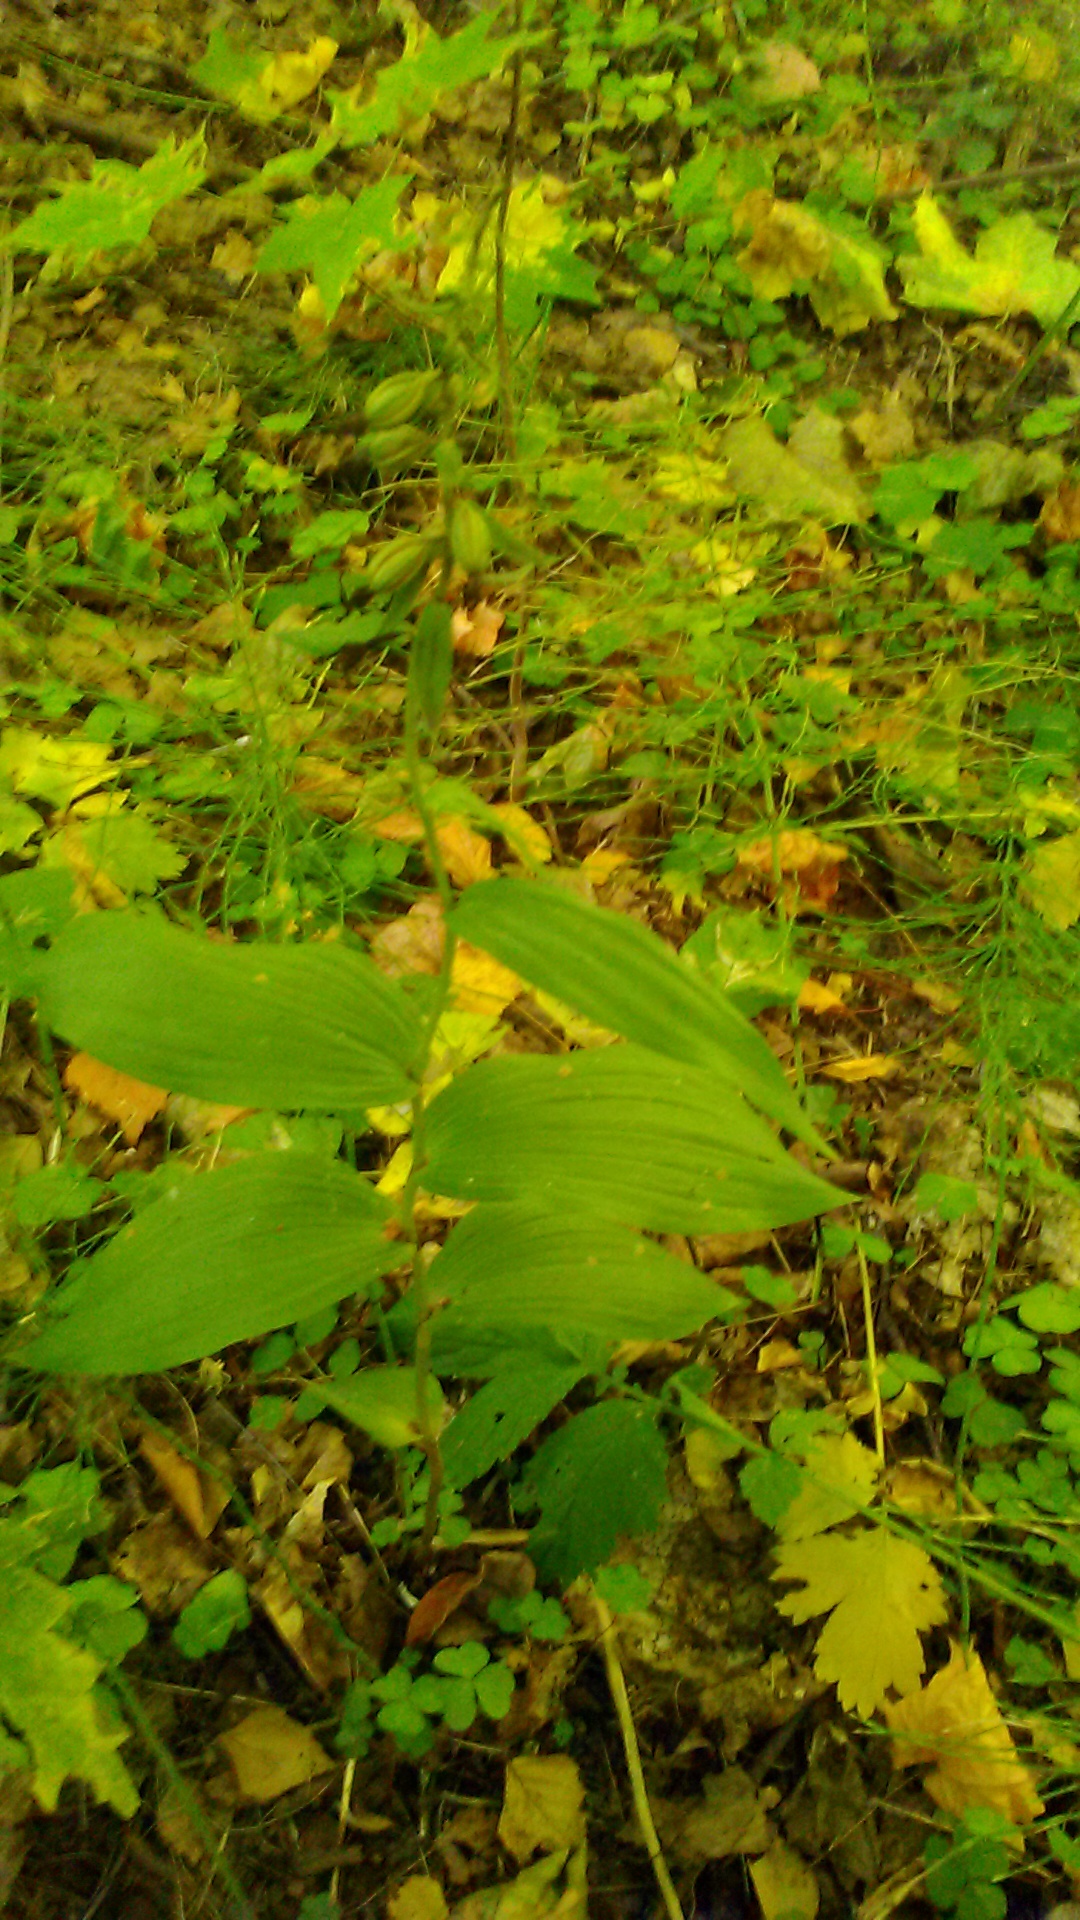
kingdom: Plantae
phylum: Tracheophyta
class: Liliopsida
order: Asparagales
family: Orchidaceae
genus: Epipactis
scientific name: Epipactis helleborine
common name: Broad-leaved helleborine
